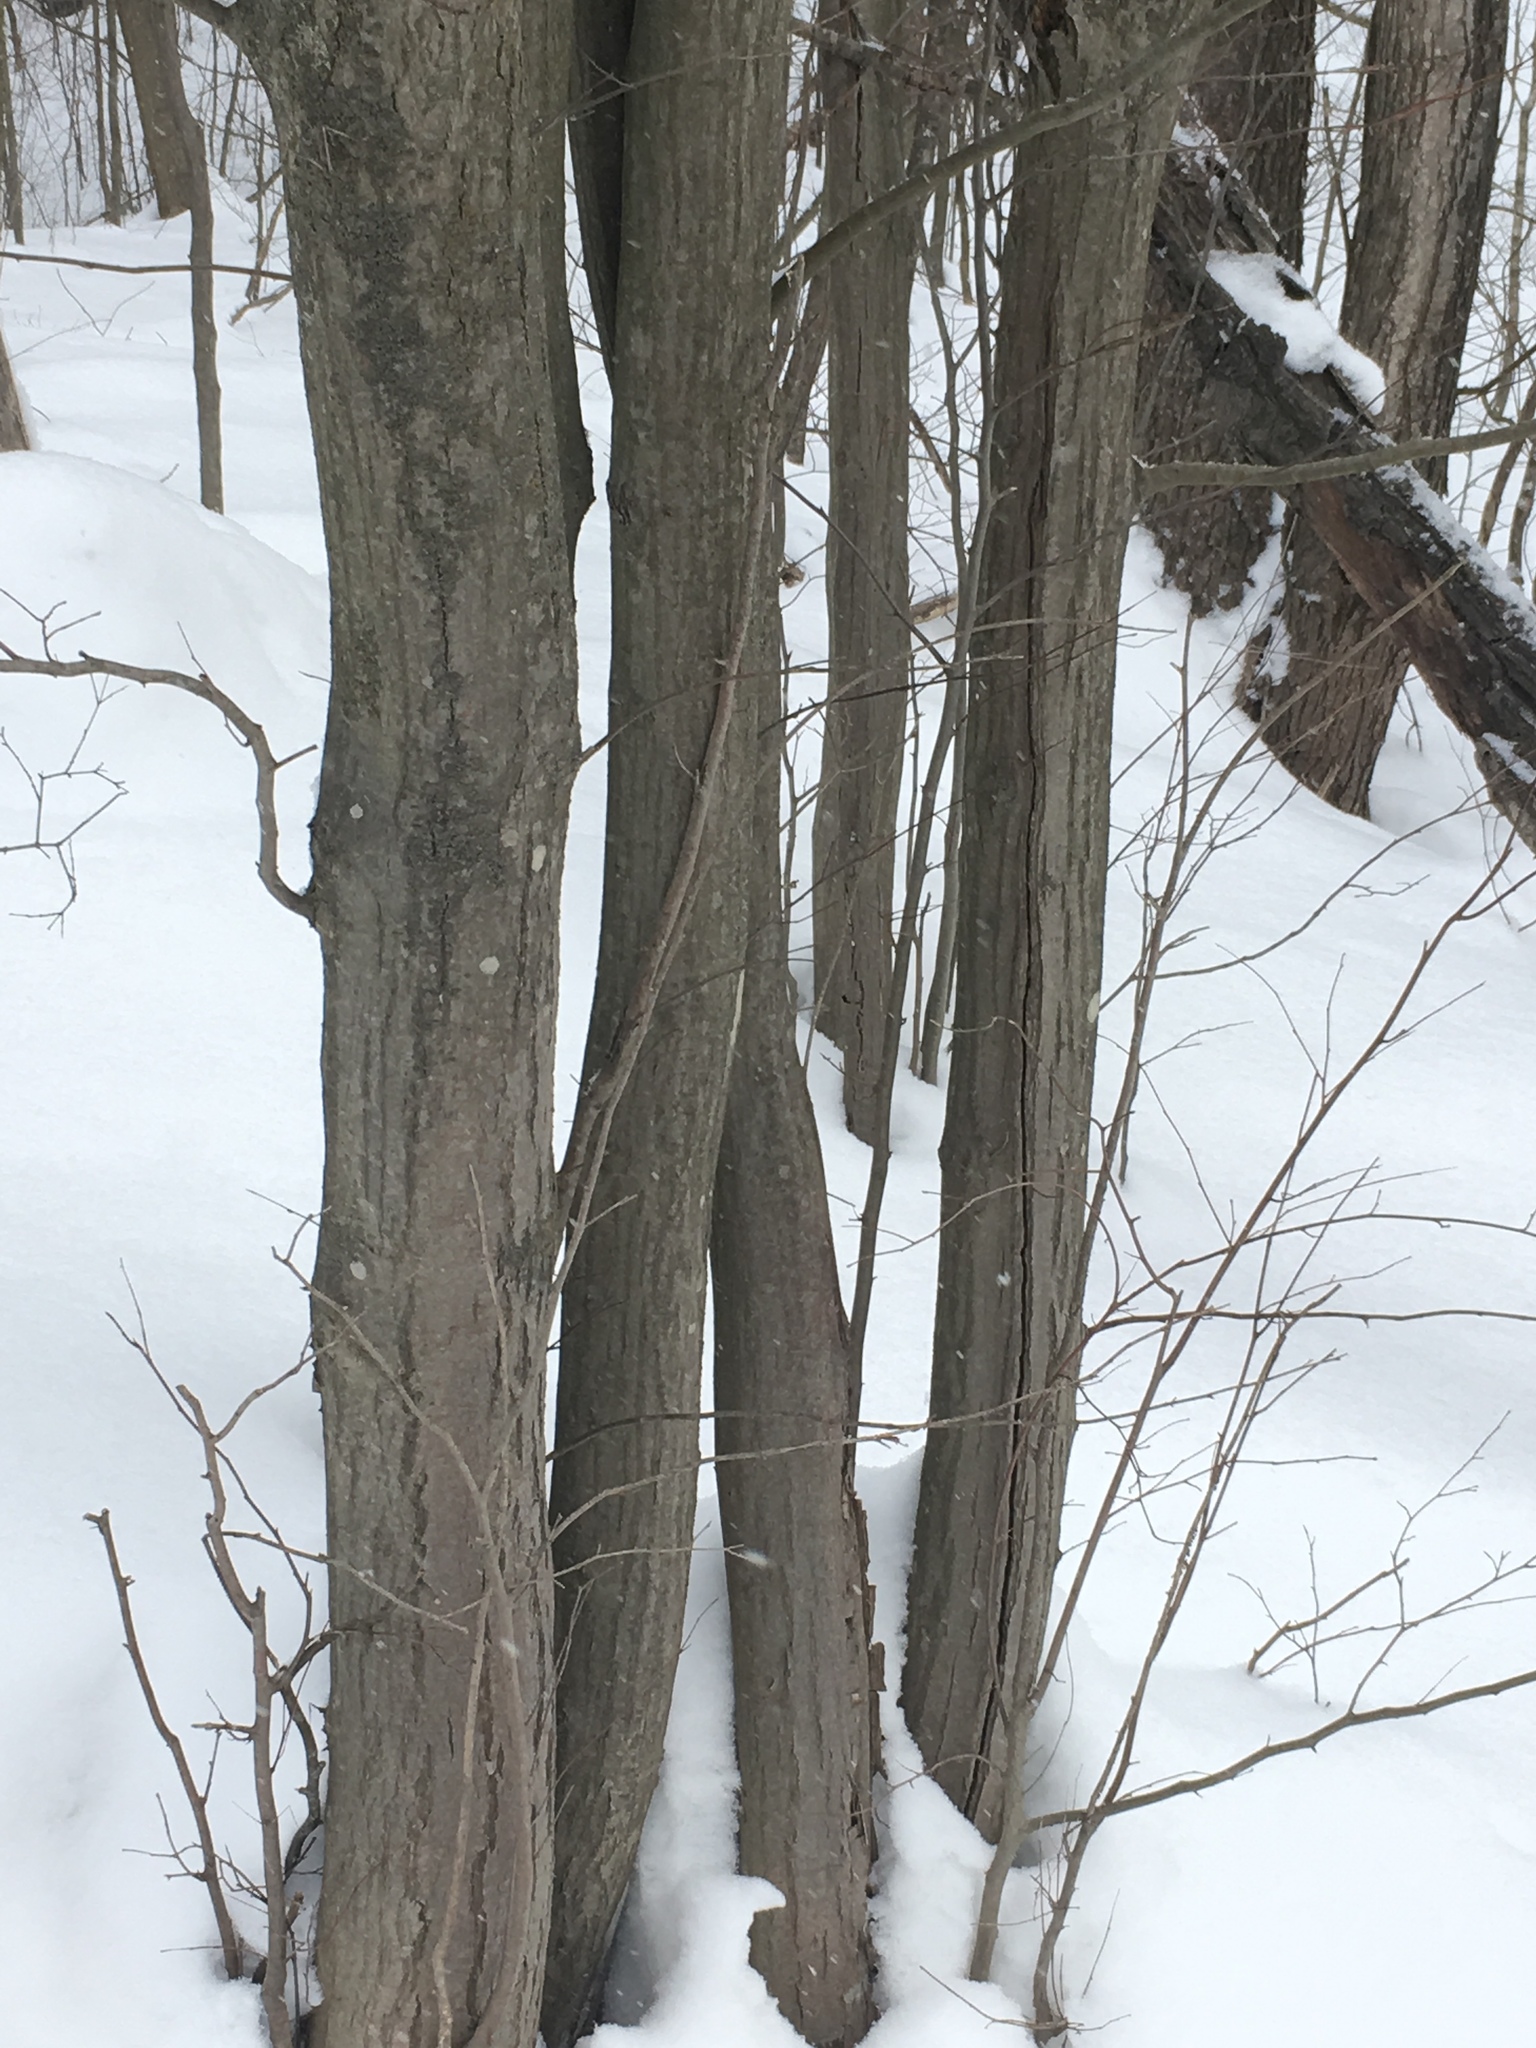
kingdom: Plantae
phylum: Tracheophyta
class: Magnoliopsida
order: Fagales
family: Betulaceae
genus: Carpinus
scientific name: Carpinus caroliniana
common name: American hornbeam
